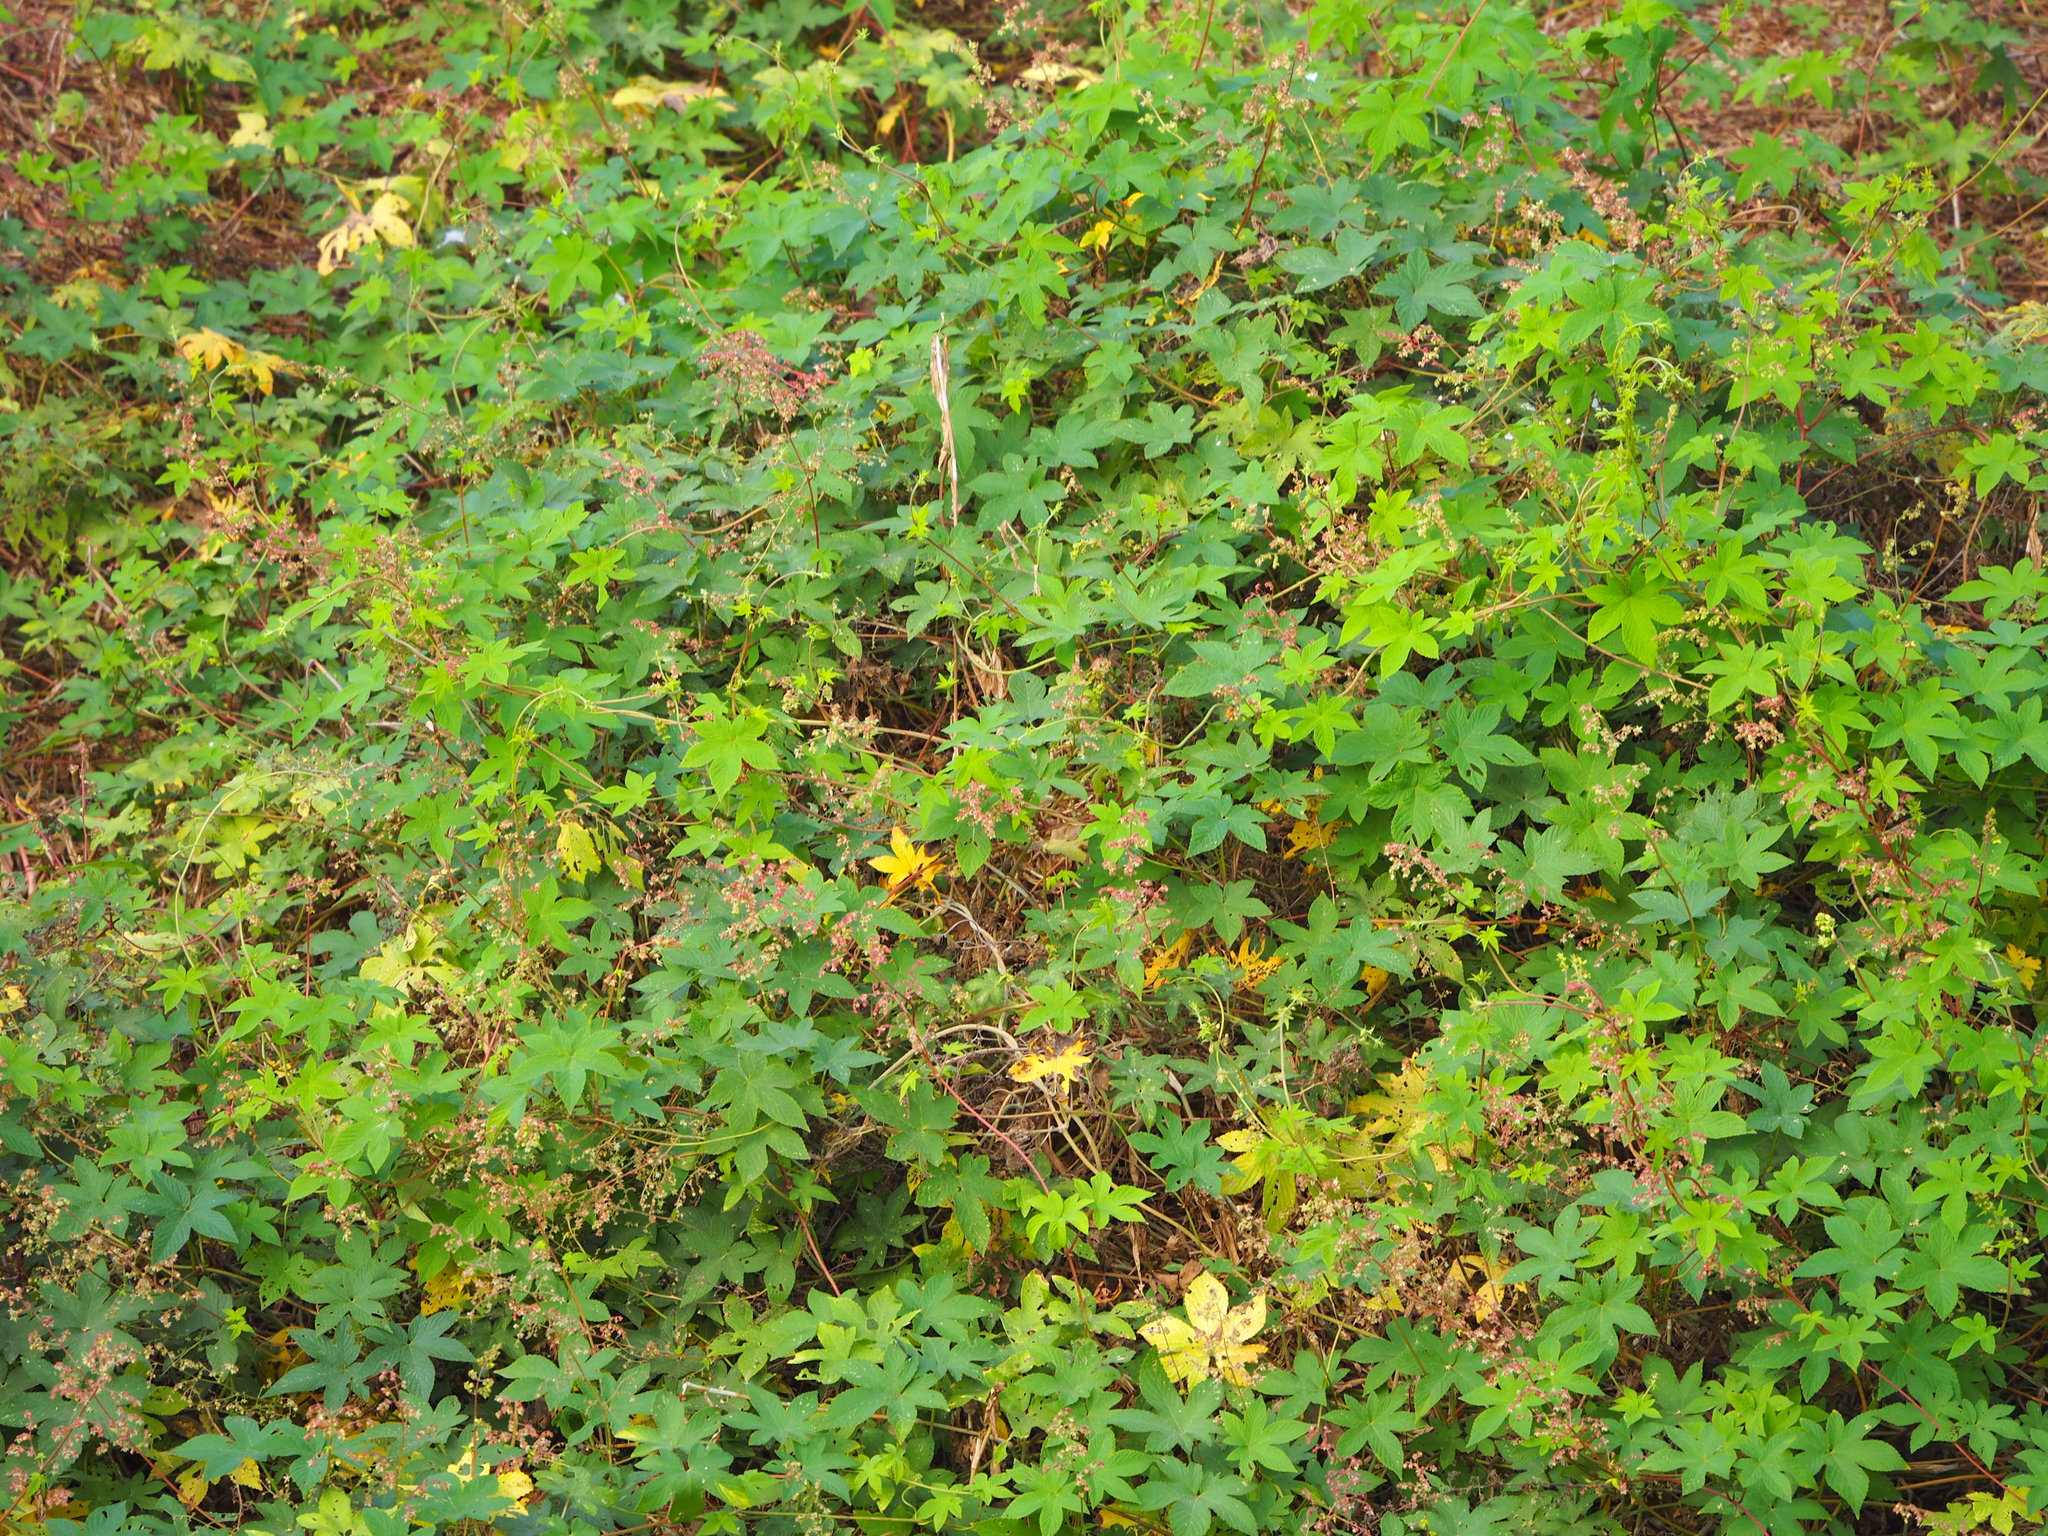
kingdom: Plantae
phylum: Tracheophyta
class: Magnoliopsida
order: Rosales
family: Cannabaceae
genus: Humulus
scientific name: Humulus scandens
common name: Japanese hop
